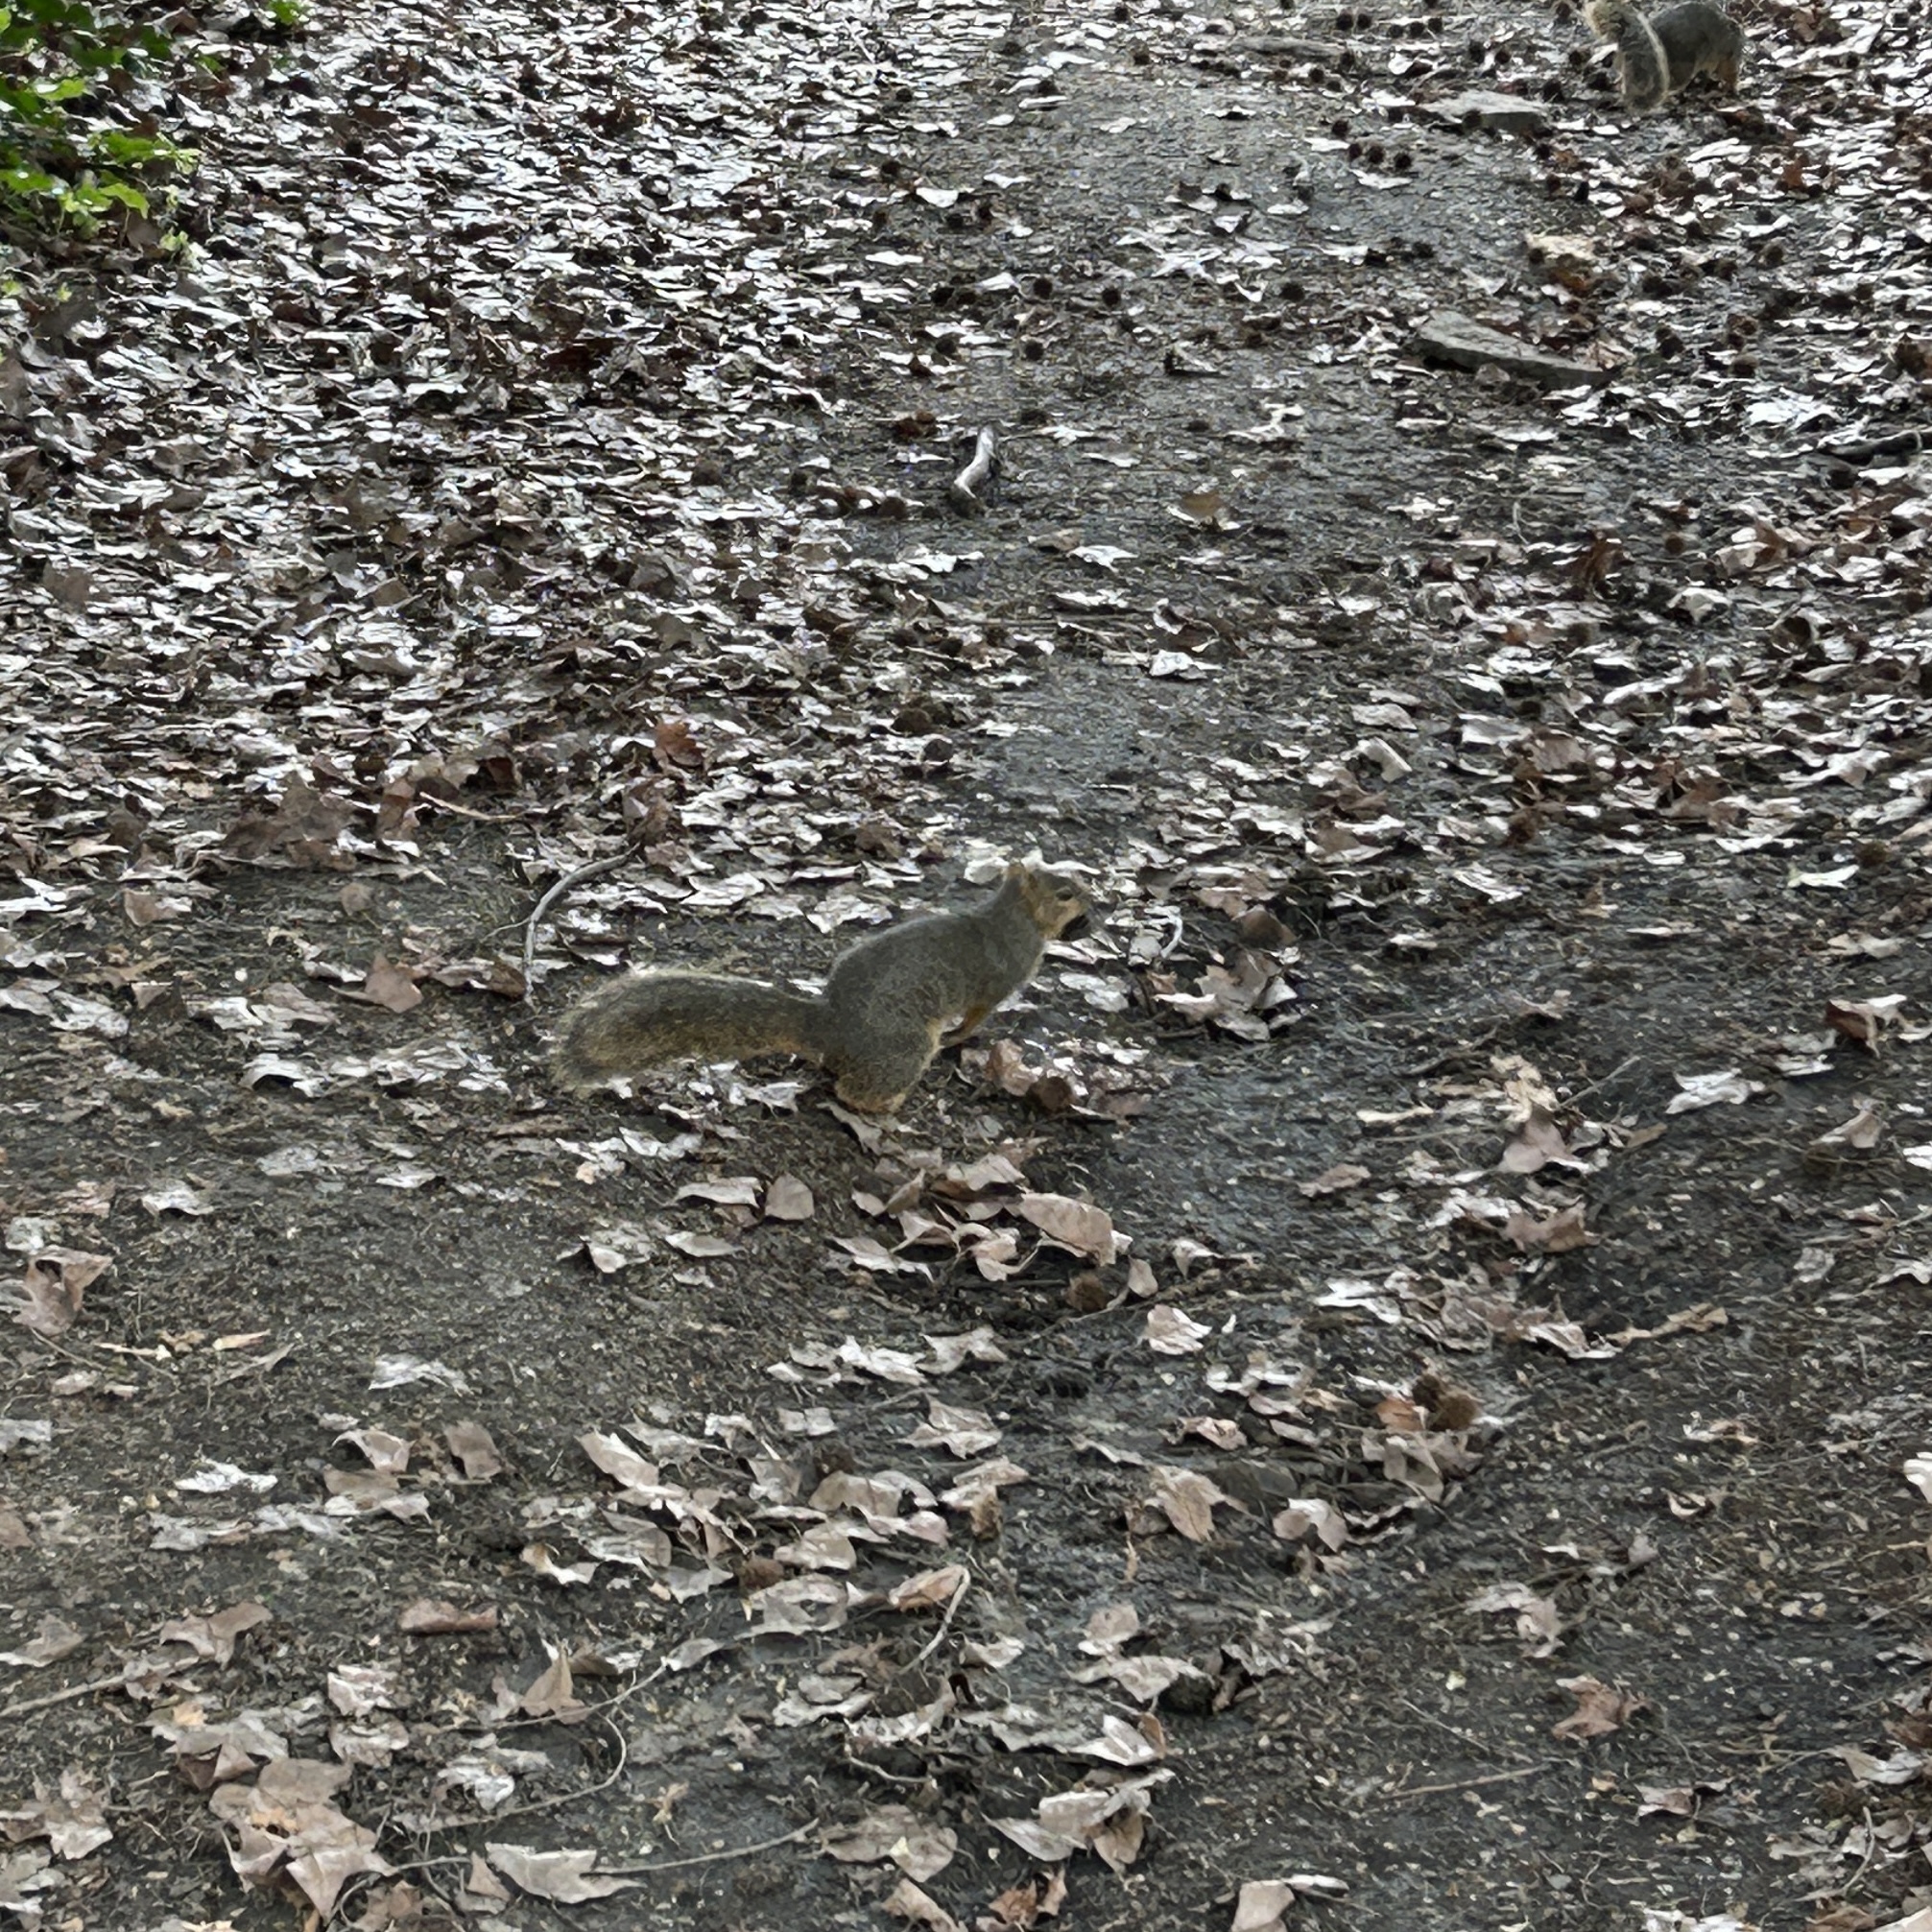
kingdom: Animalia
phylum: Chordata
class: Mammalia
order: Rodentia
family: Sciuridae
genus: Sciurus
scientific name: Sciurus niger
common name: Fox squirrel
